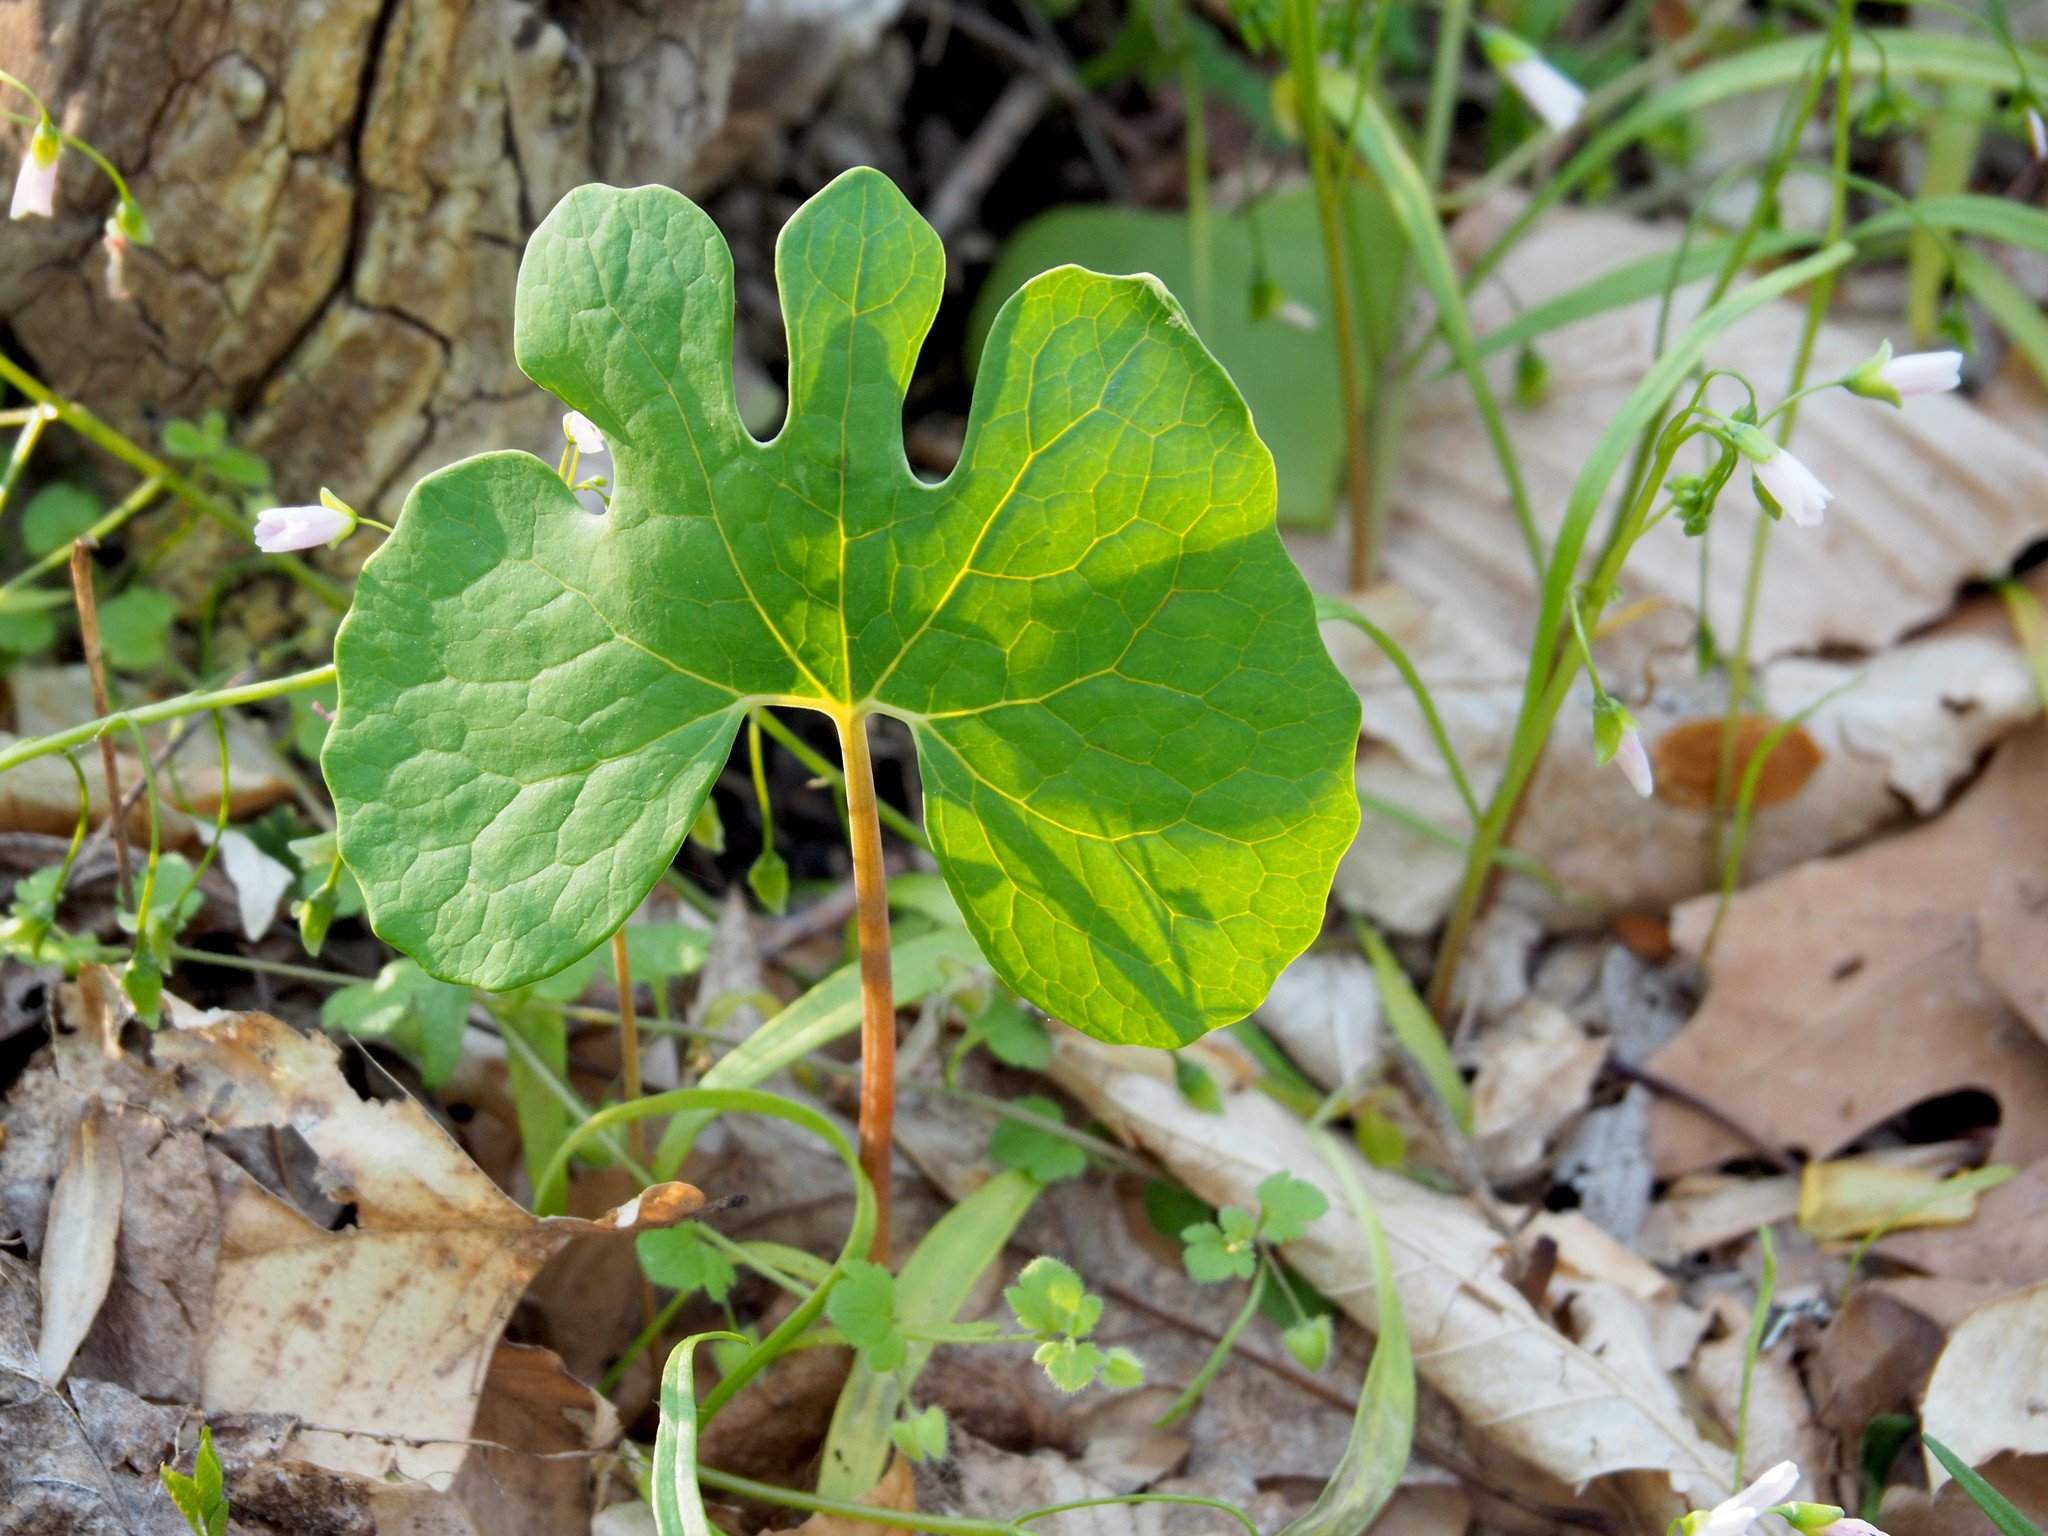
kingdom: Plantae
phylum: Tracheophyta
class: Magnoliopsida
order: Ranunculales
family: Papaveraceae
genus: Sanguinaria
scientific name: Sanguinaria canadensis
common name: Bloodroot
